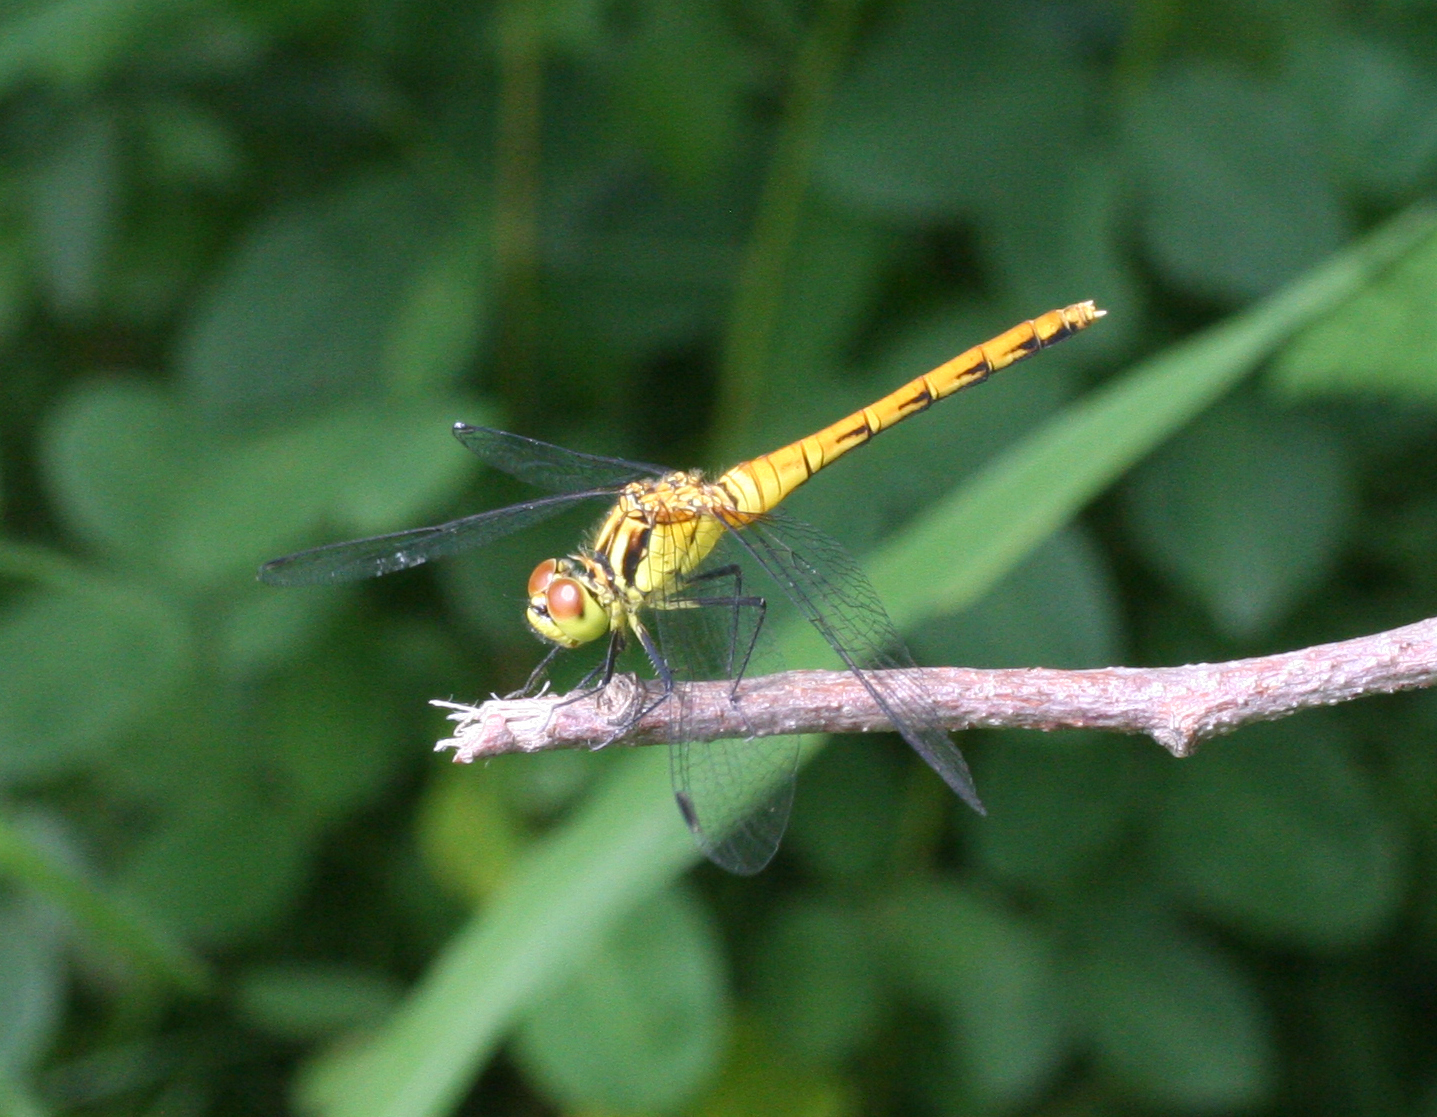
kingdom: Animalia
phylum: Arthropoda
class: Insecta
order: Odonata
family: Libellulidae
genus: Sympetrum
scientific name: Sympetrum eroticum
